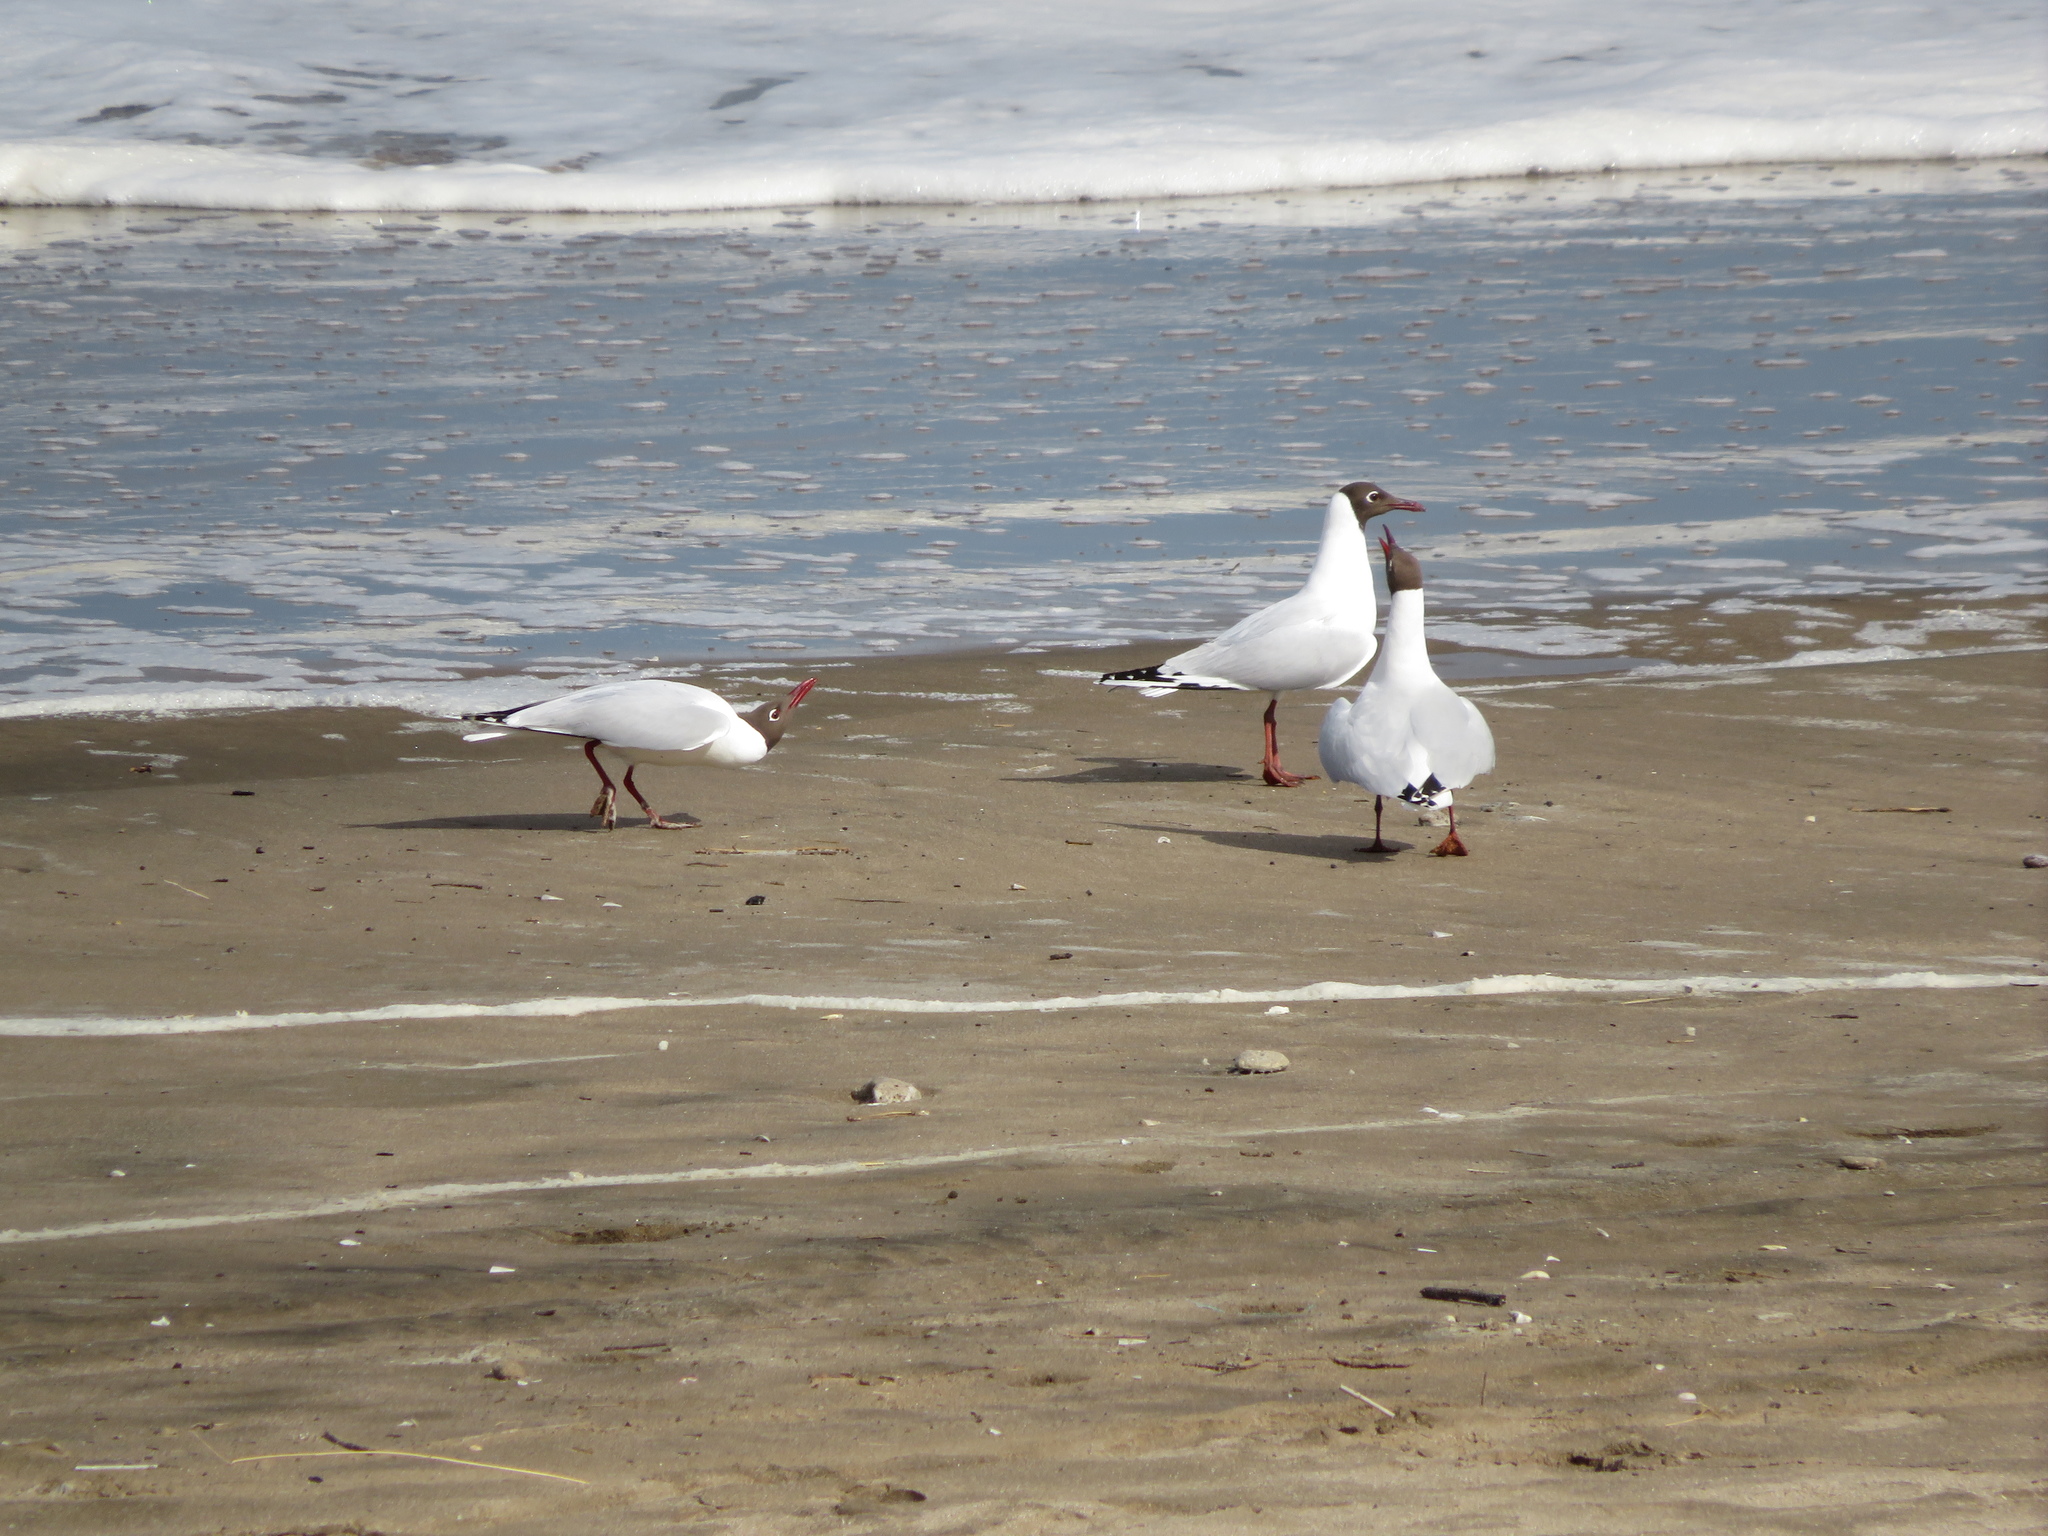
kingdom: Animalia
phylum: Chordata
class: Aves
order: Charadriiformes
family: Laridae
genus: Chroicocephalus
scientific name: Chroicocephalus maculipennis
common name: Brown-hooded gull
